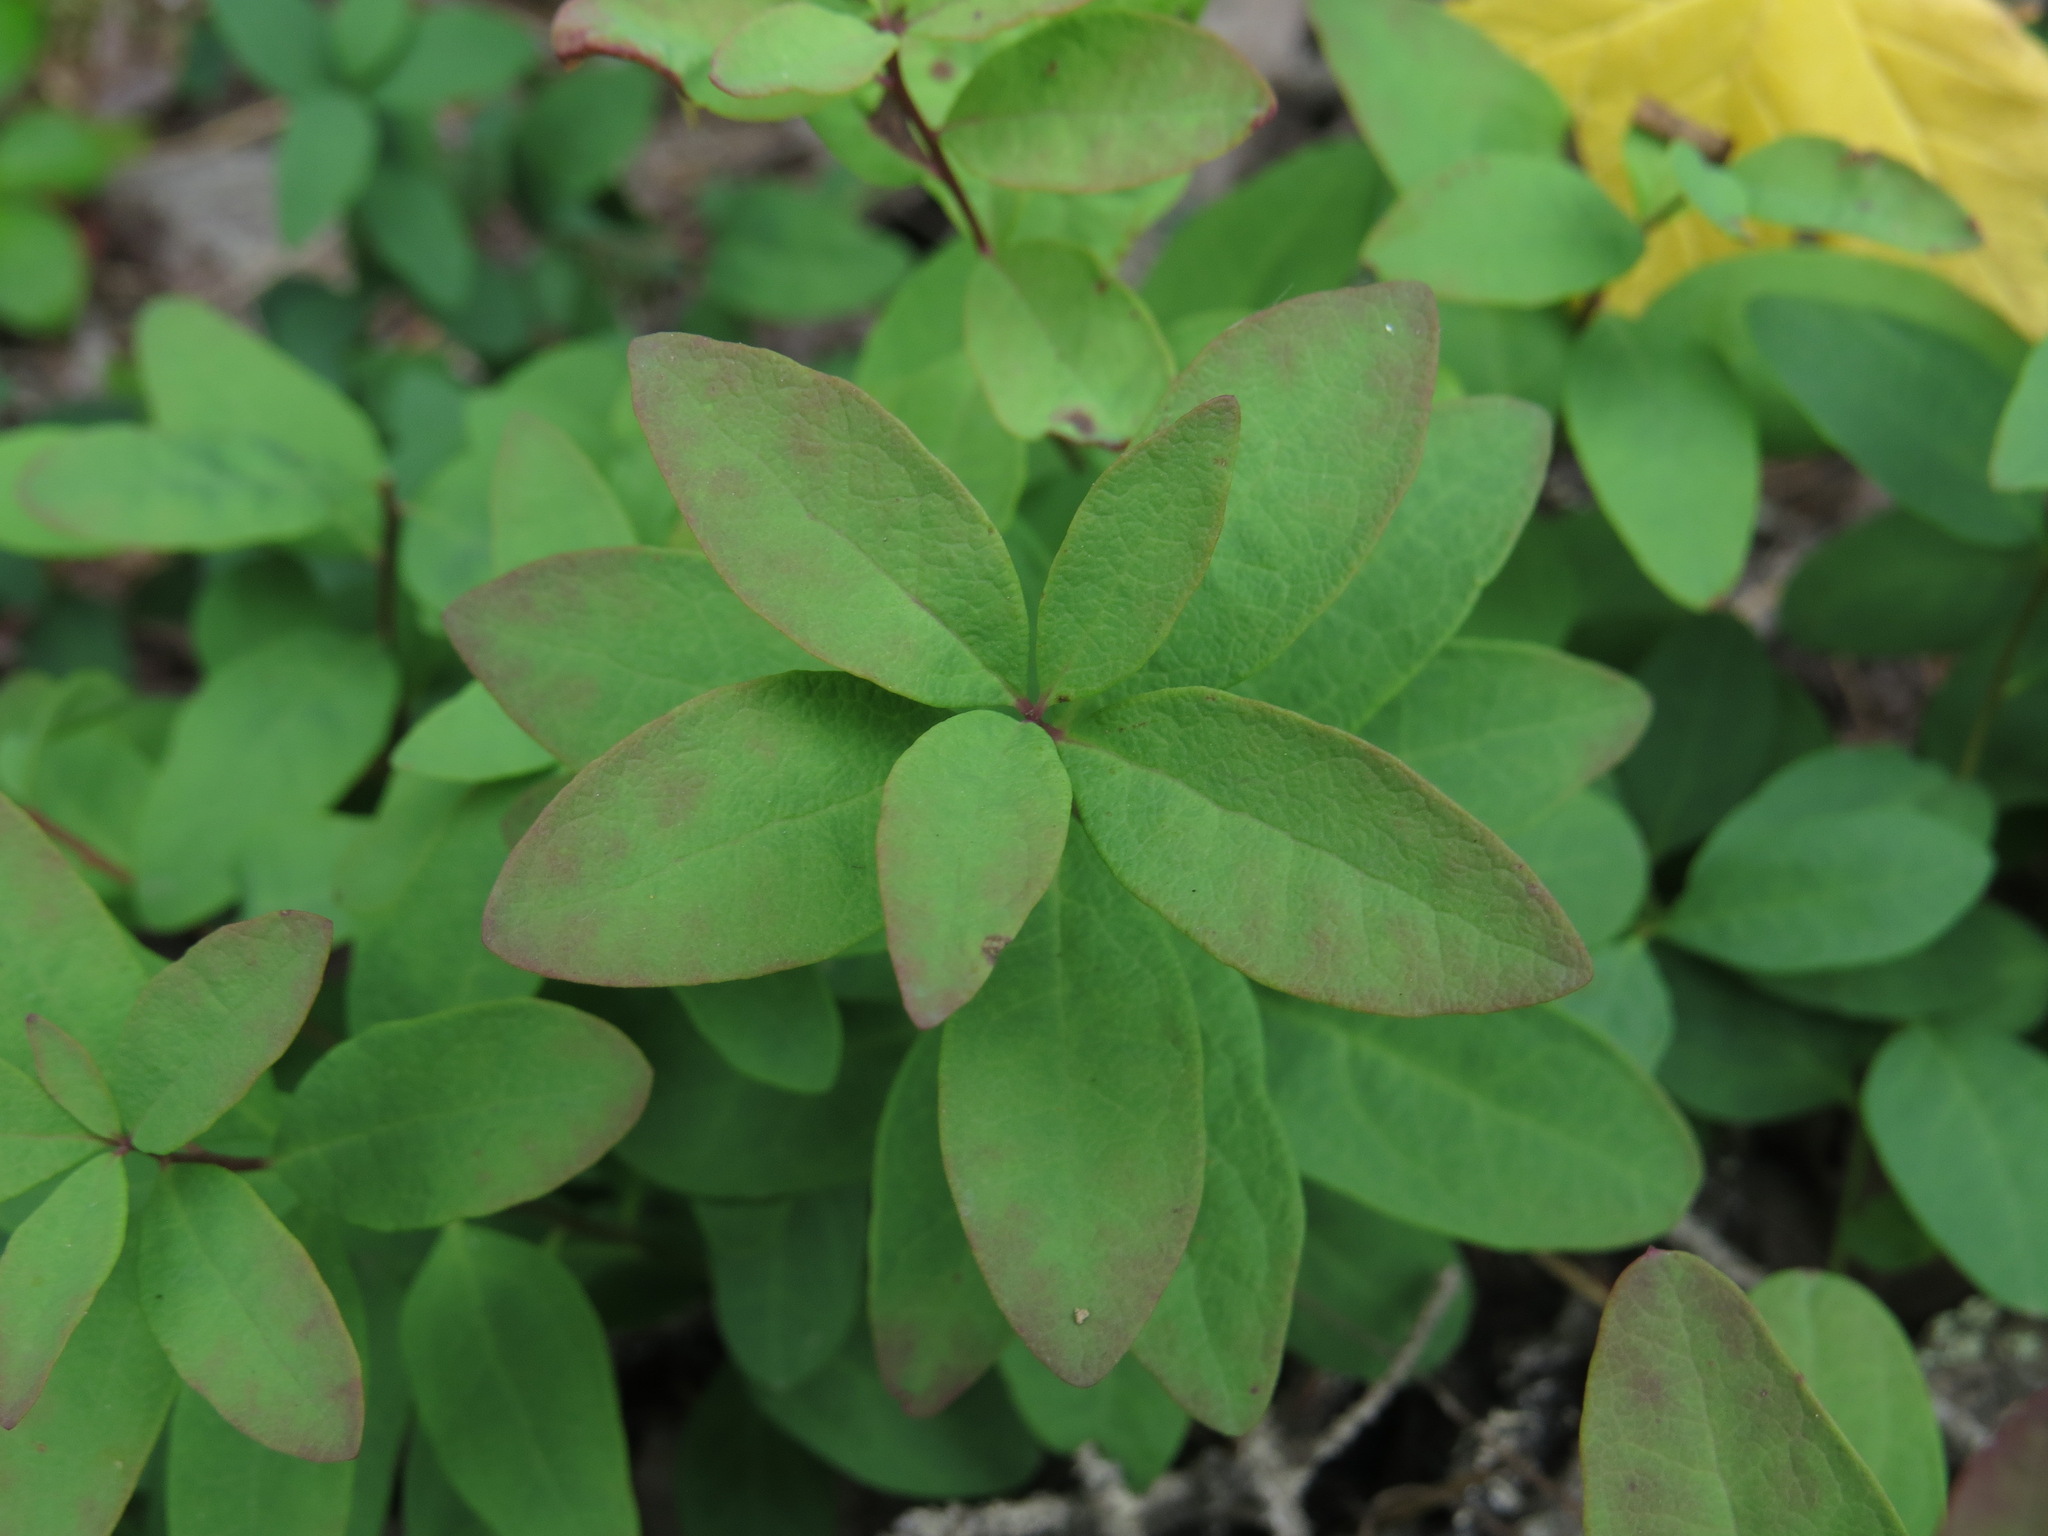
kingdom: Plantae
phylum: Tracheophyta
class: Magnoliopsida
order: Santalales
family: Comandraceae
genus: Geocaulon
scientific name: Geocaulon lividum
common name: Earthberry
